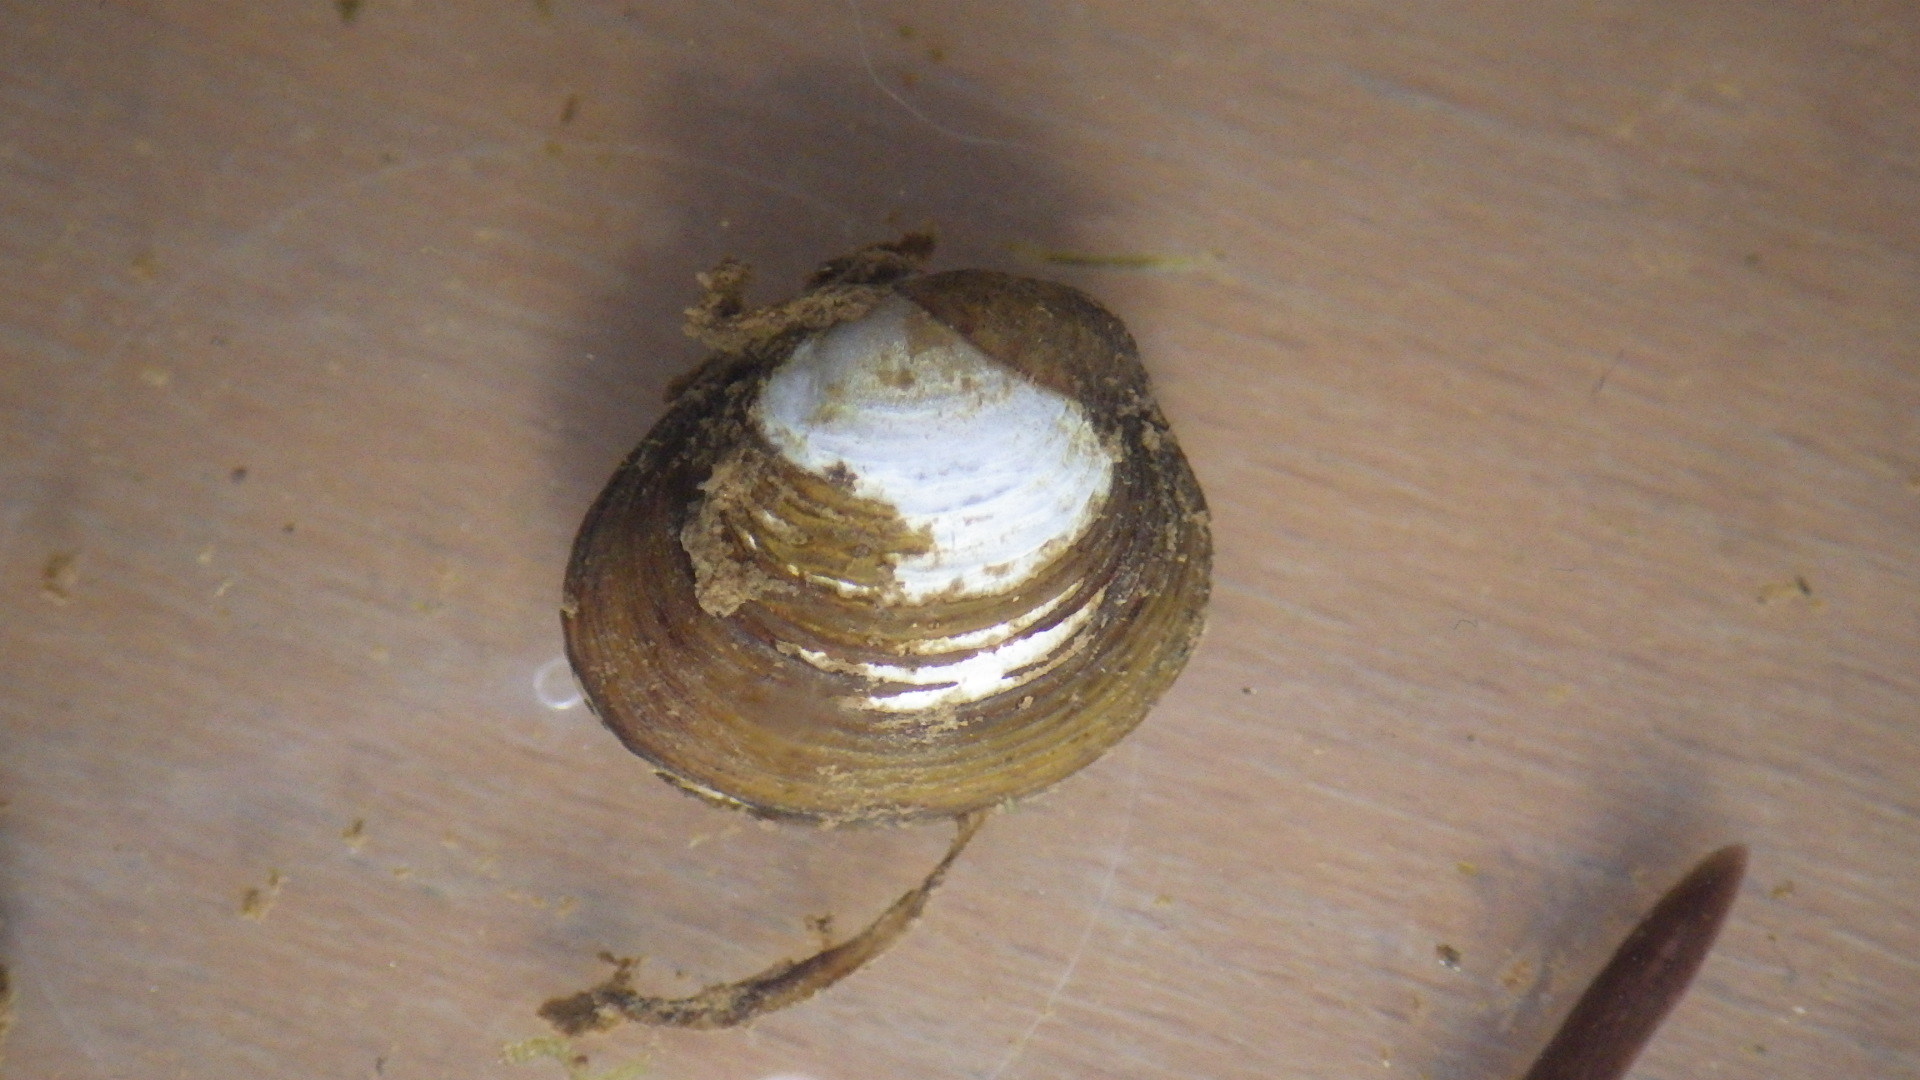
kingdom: Animalia
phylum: Mollusca
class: Bivalvia
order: Venerida
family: Cyrenidae
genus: Corbicula
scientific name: Corbicula fluminea
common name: Asian clam
